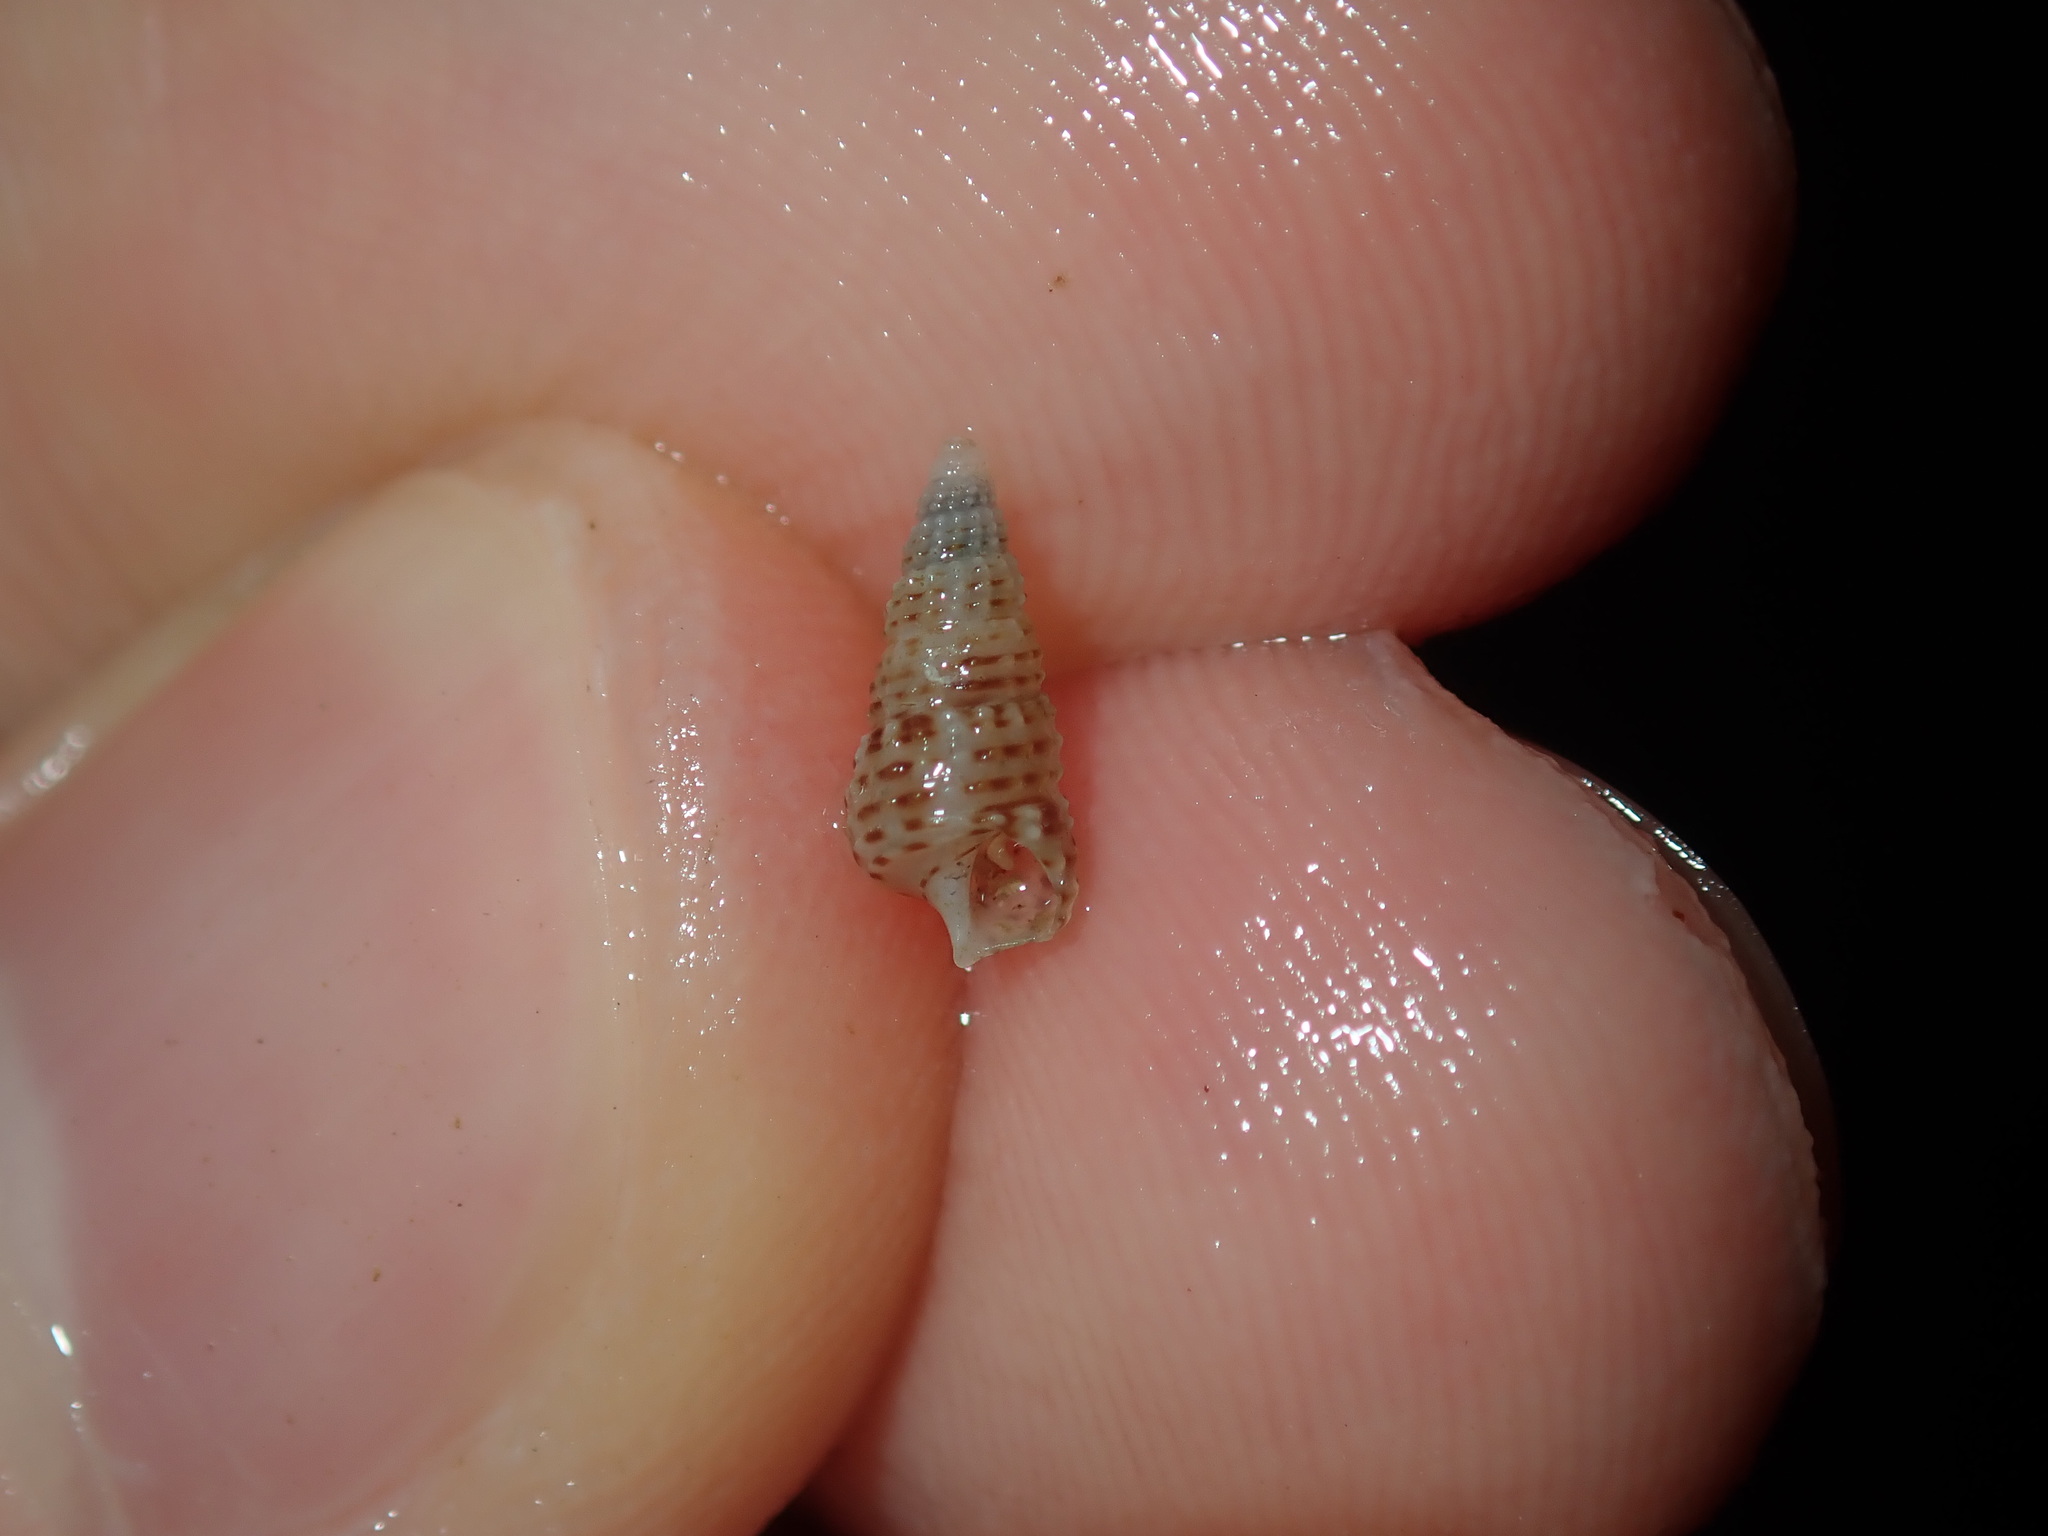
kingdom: Animalia
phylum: Mollusca
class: Gastropoda
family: Cerithiidae
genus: Cacozeliana
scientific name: Cacozeliana granarium
